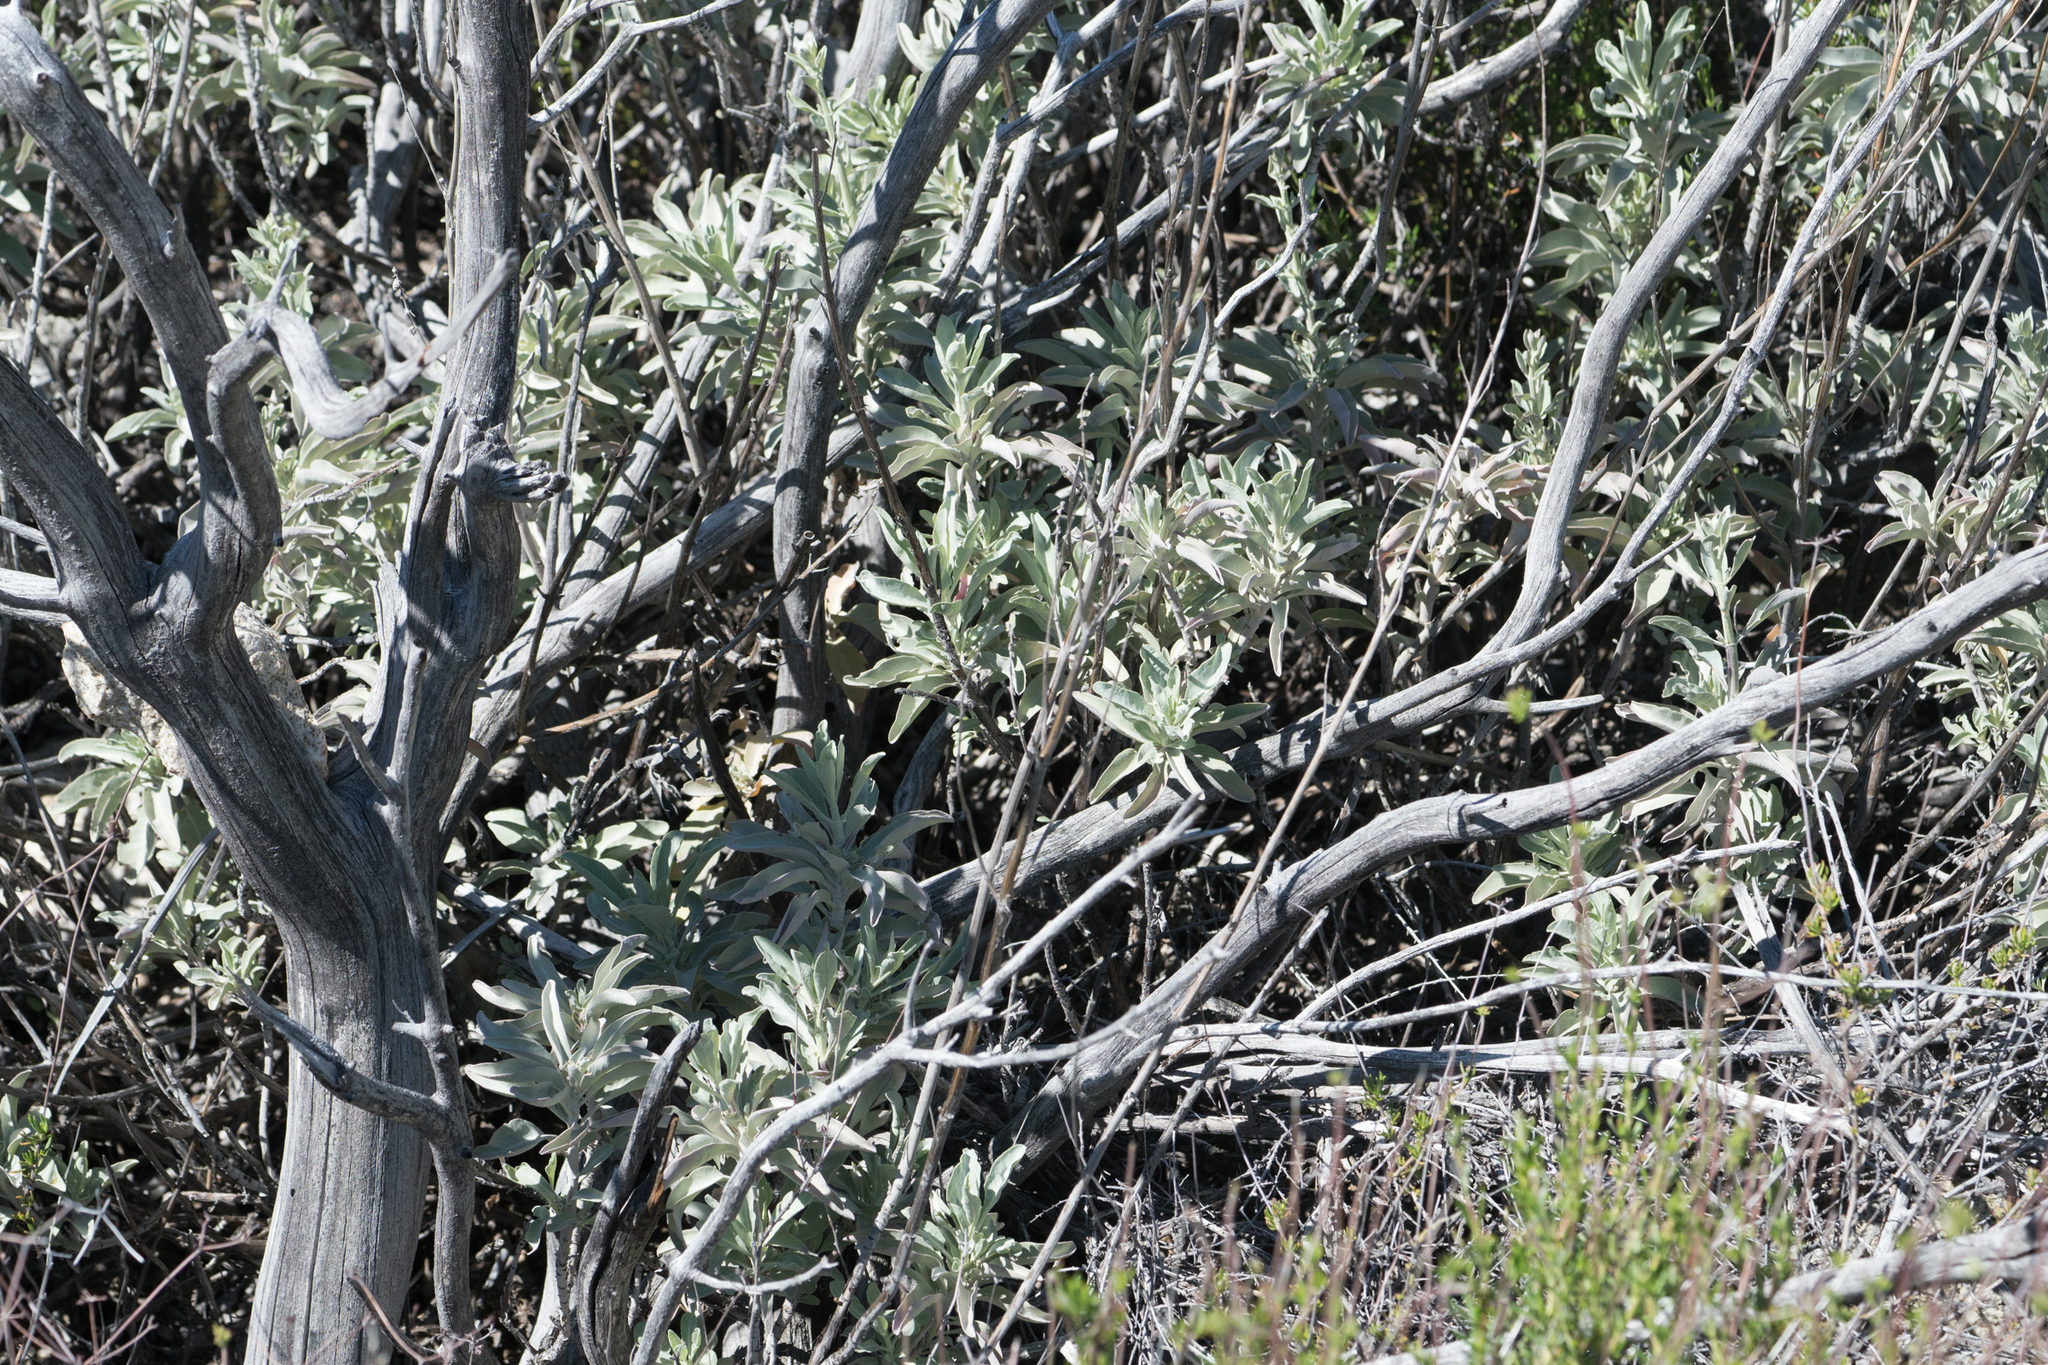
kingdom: Plantae
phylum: Tracheophyta
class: Magnoliopsida
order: Lamiales
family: Lamiaceae
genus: Salvia
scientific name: Salvia apiana
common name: White sage
